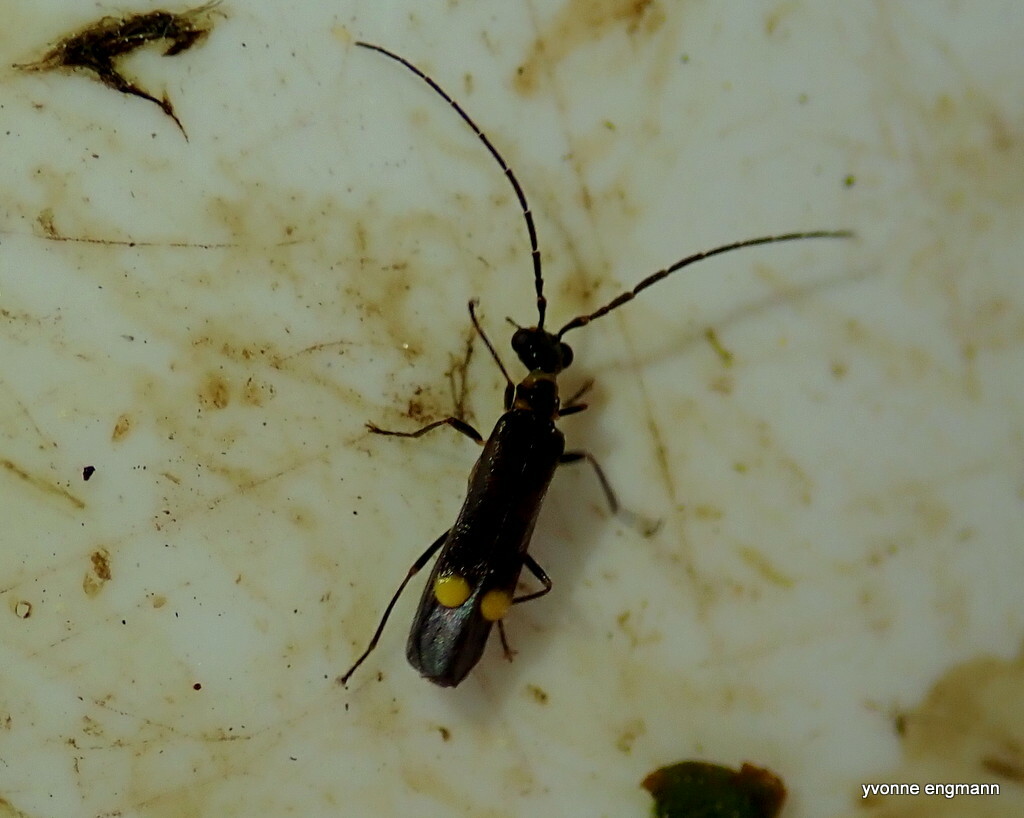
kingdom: Animalia
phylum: Arthropoda
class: Insecta
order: Coleoptera
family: Cantharidae
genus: Malthodes
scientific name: Malthodes
